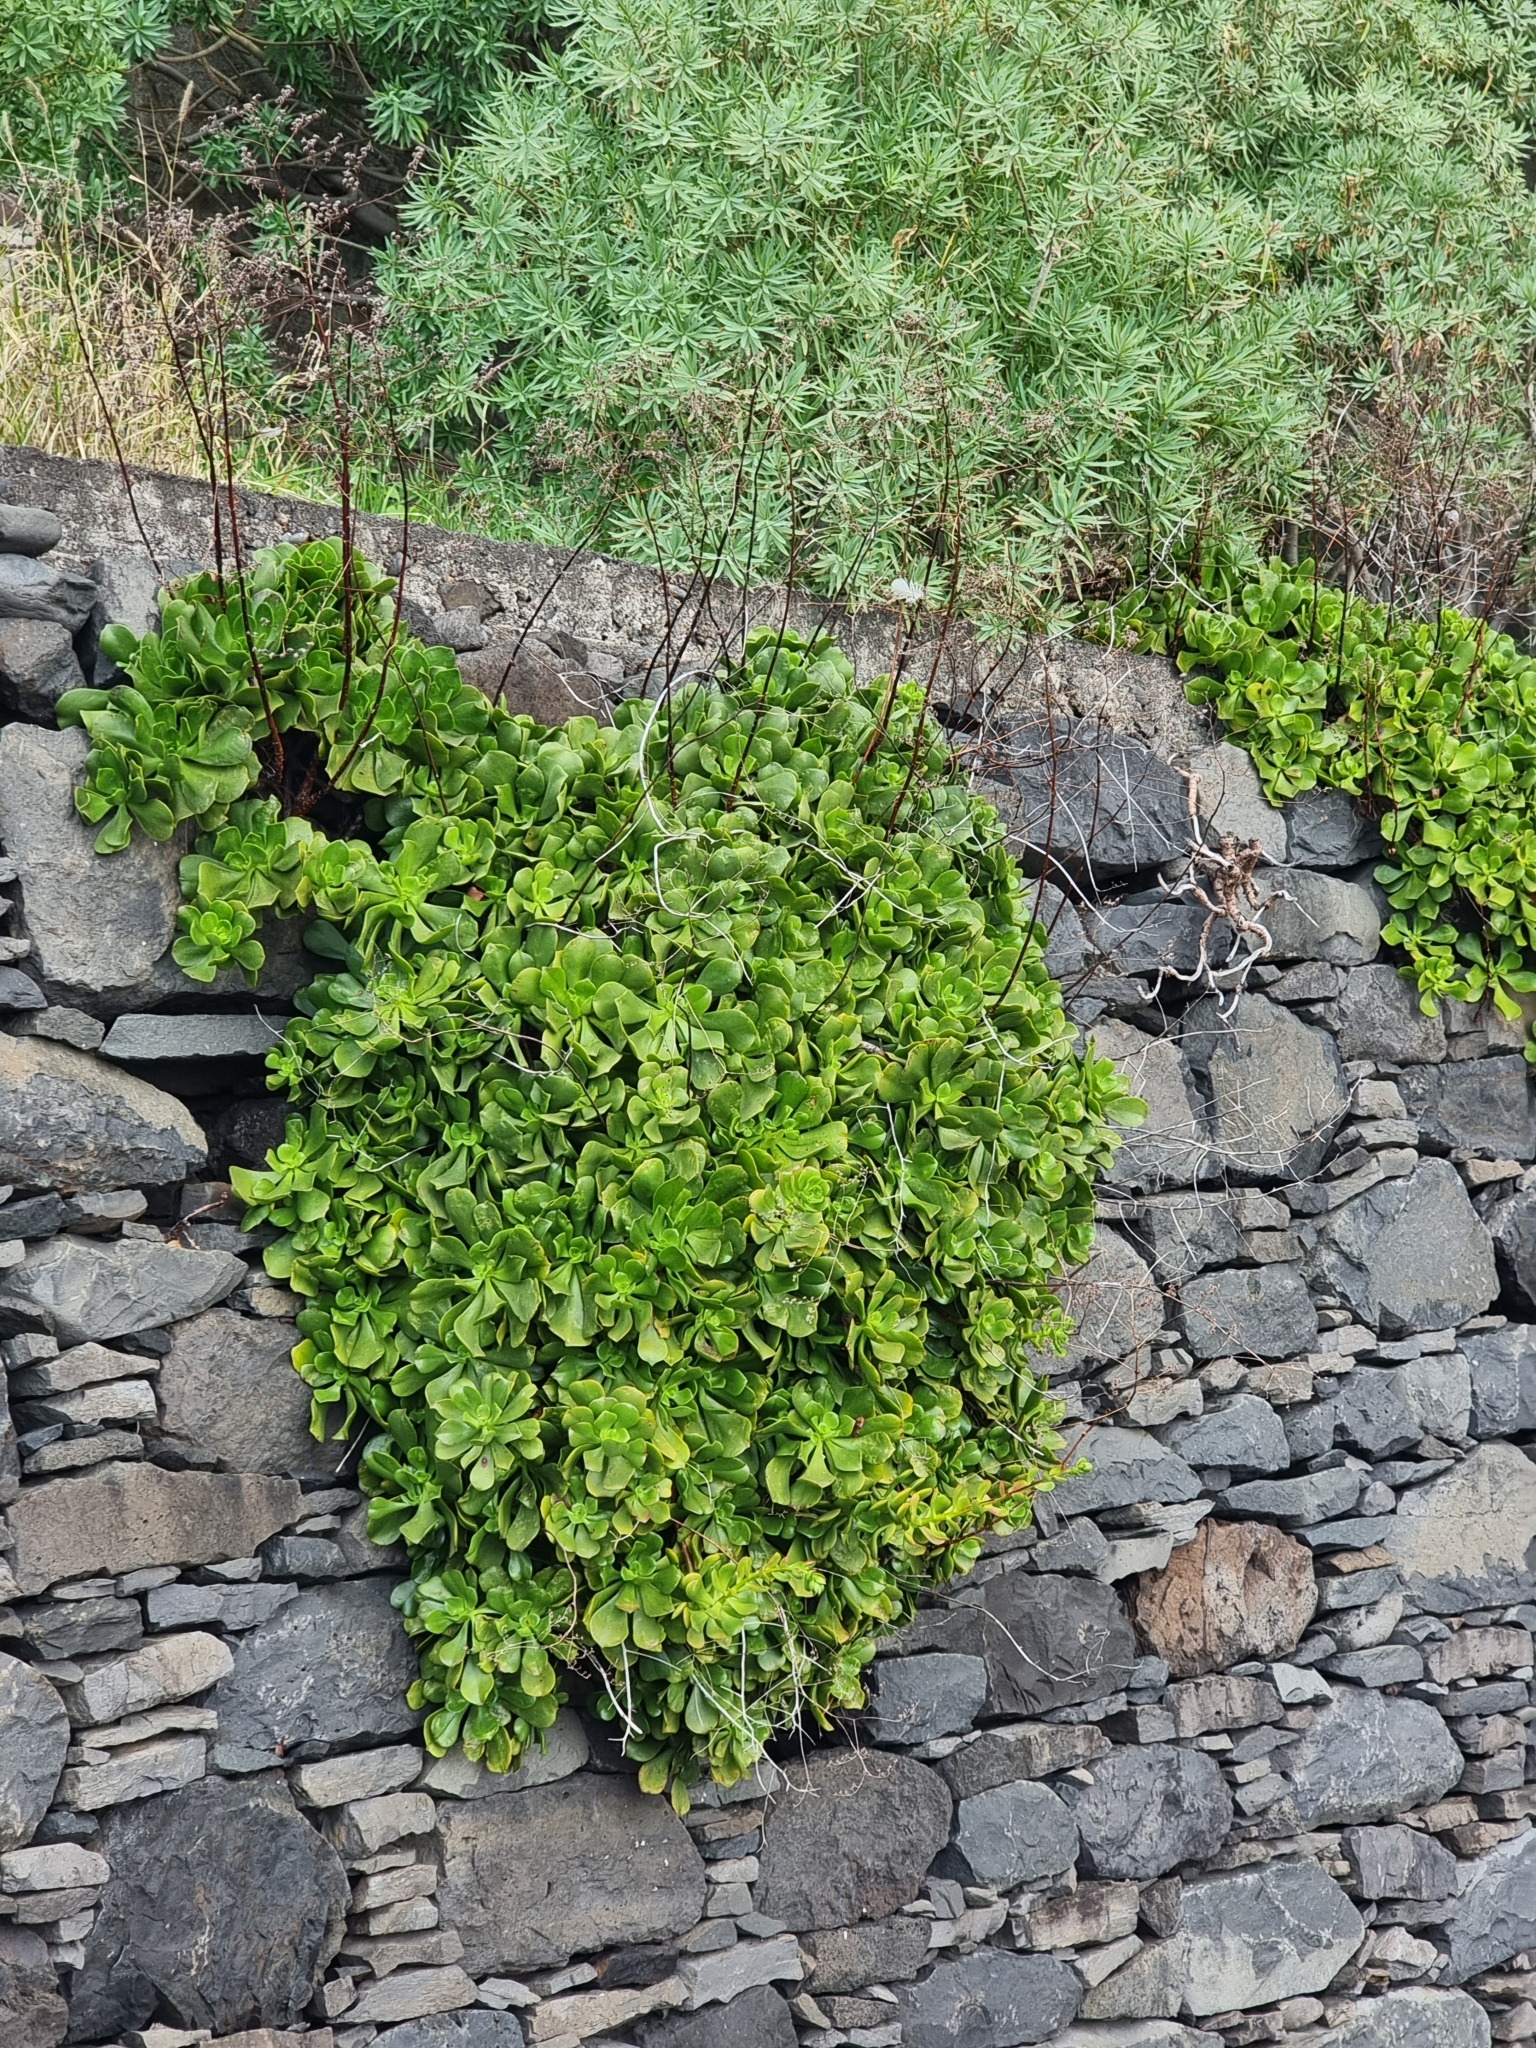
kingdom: Plantae
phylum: Tracheophyta
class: Magnoliopsida
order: Saxifragales
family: Crassulaceae
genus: Aeonium
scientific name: Aeonium glutinosum
